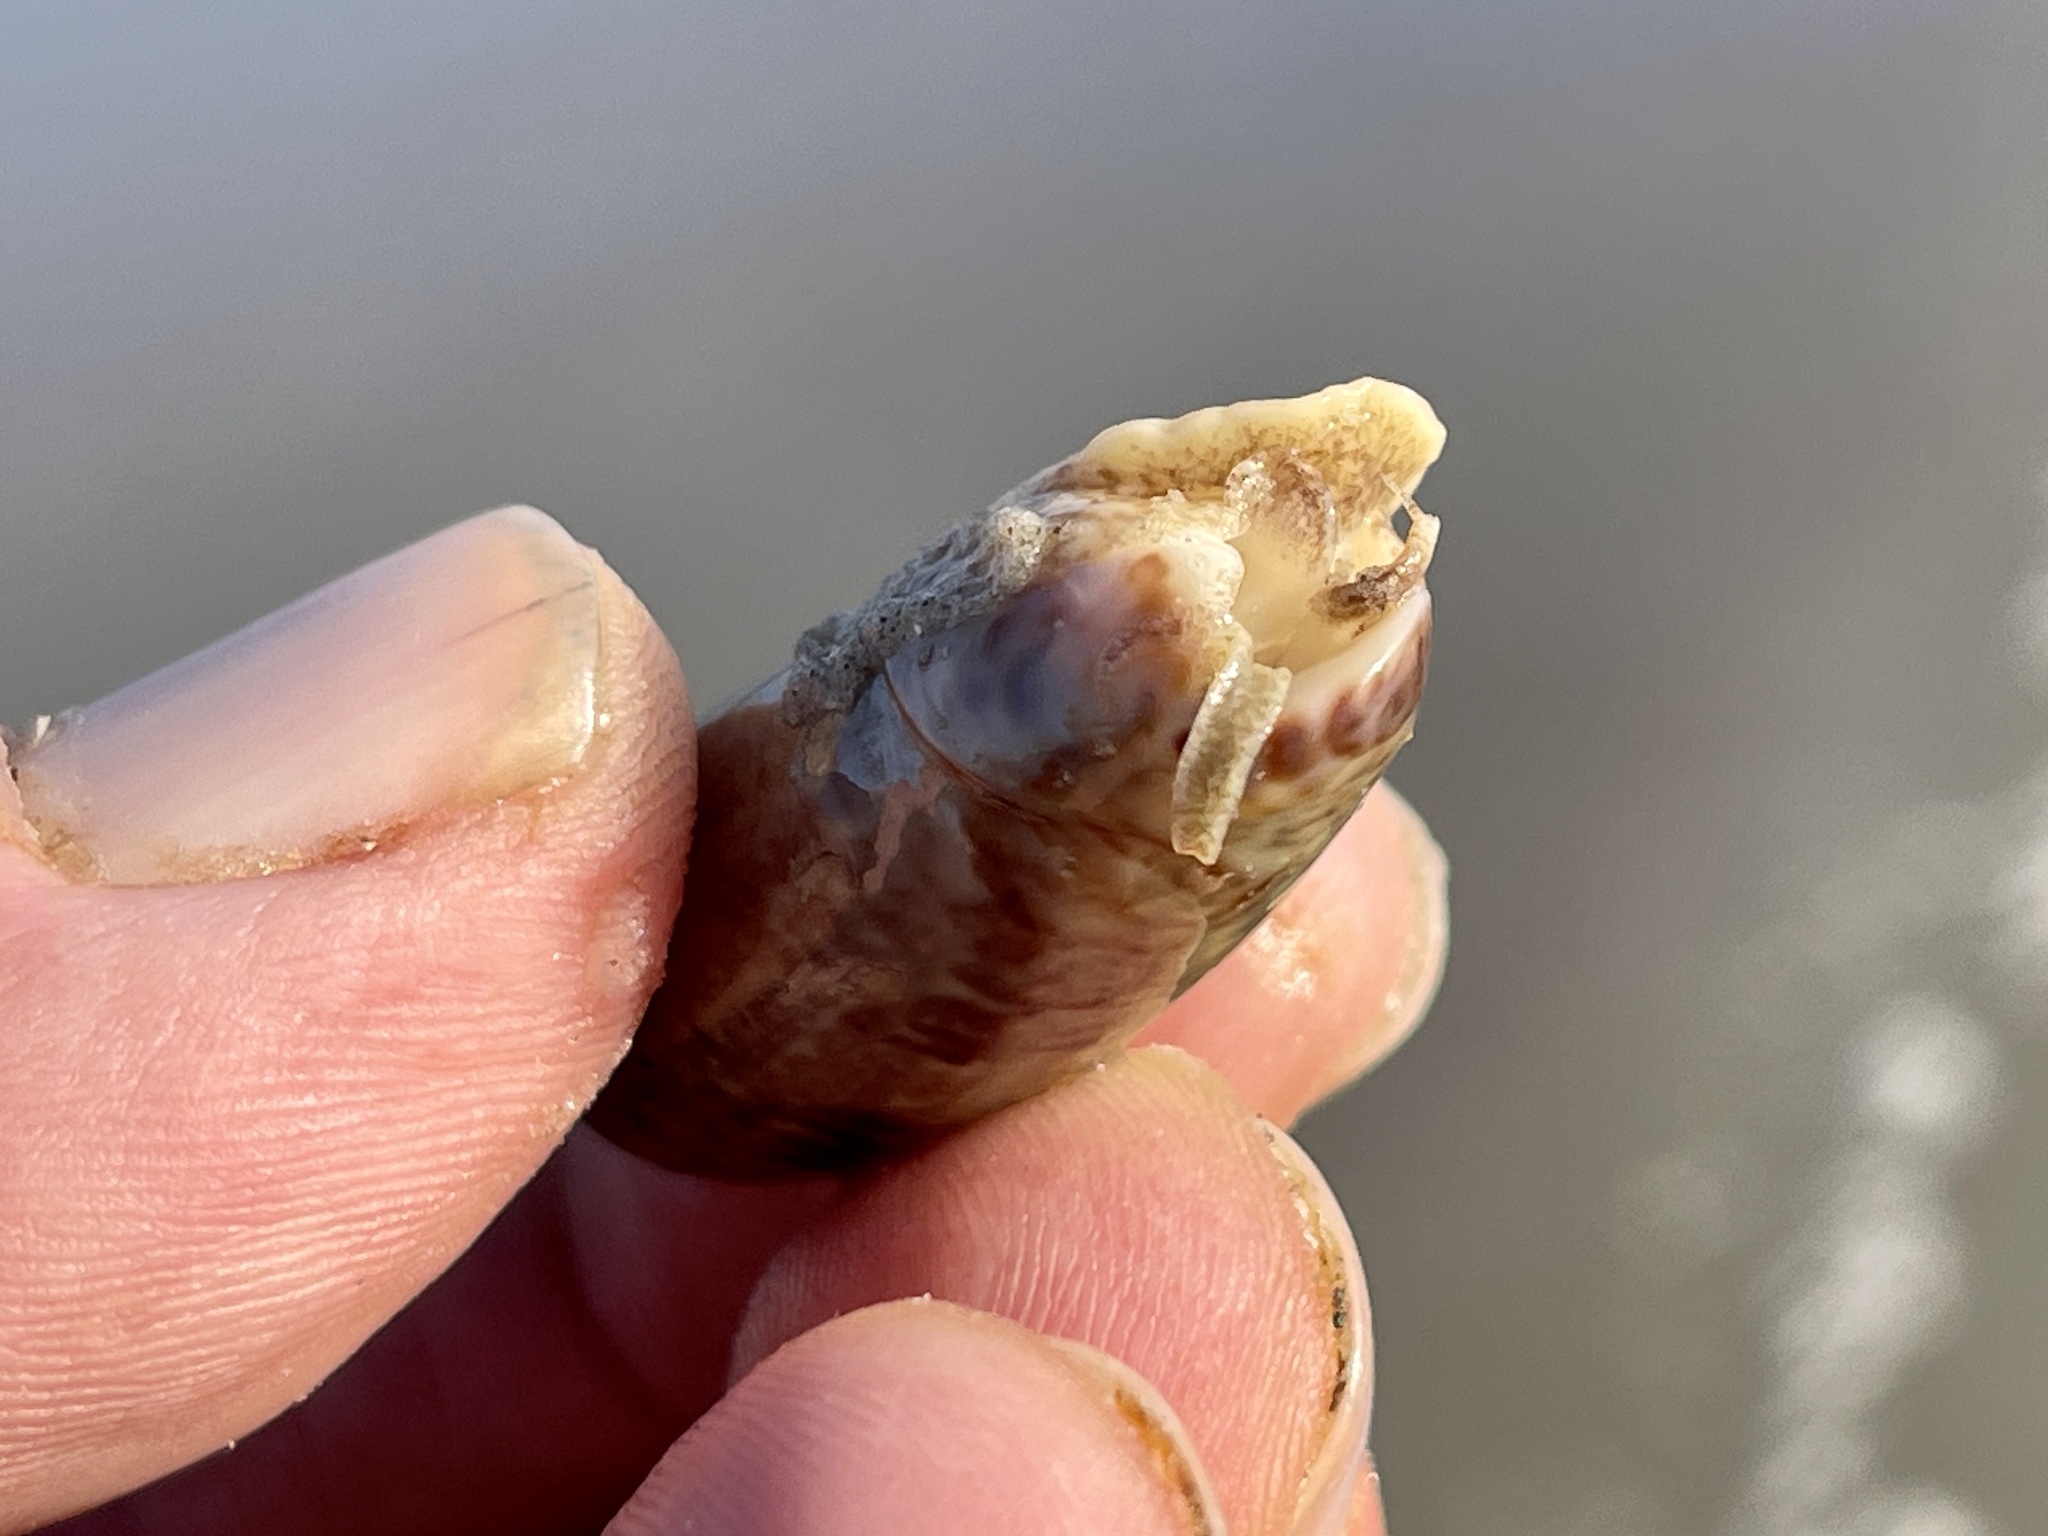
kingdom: Animalia
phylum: Mollusca
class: Gastropoda
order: Neogastropoda
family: Olividae
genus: Oliva
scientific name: Oliva sayana
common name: Lettered olive
